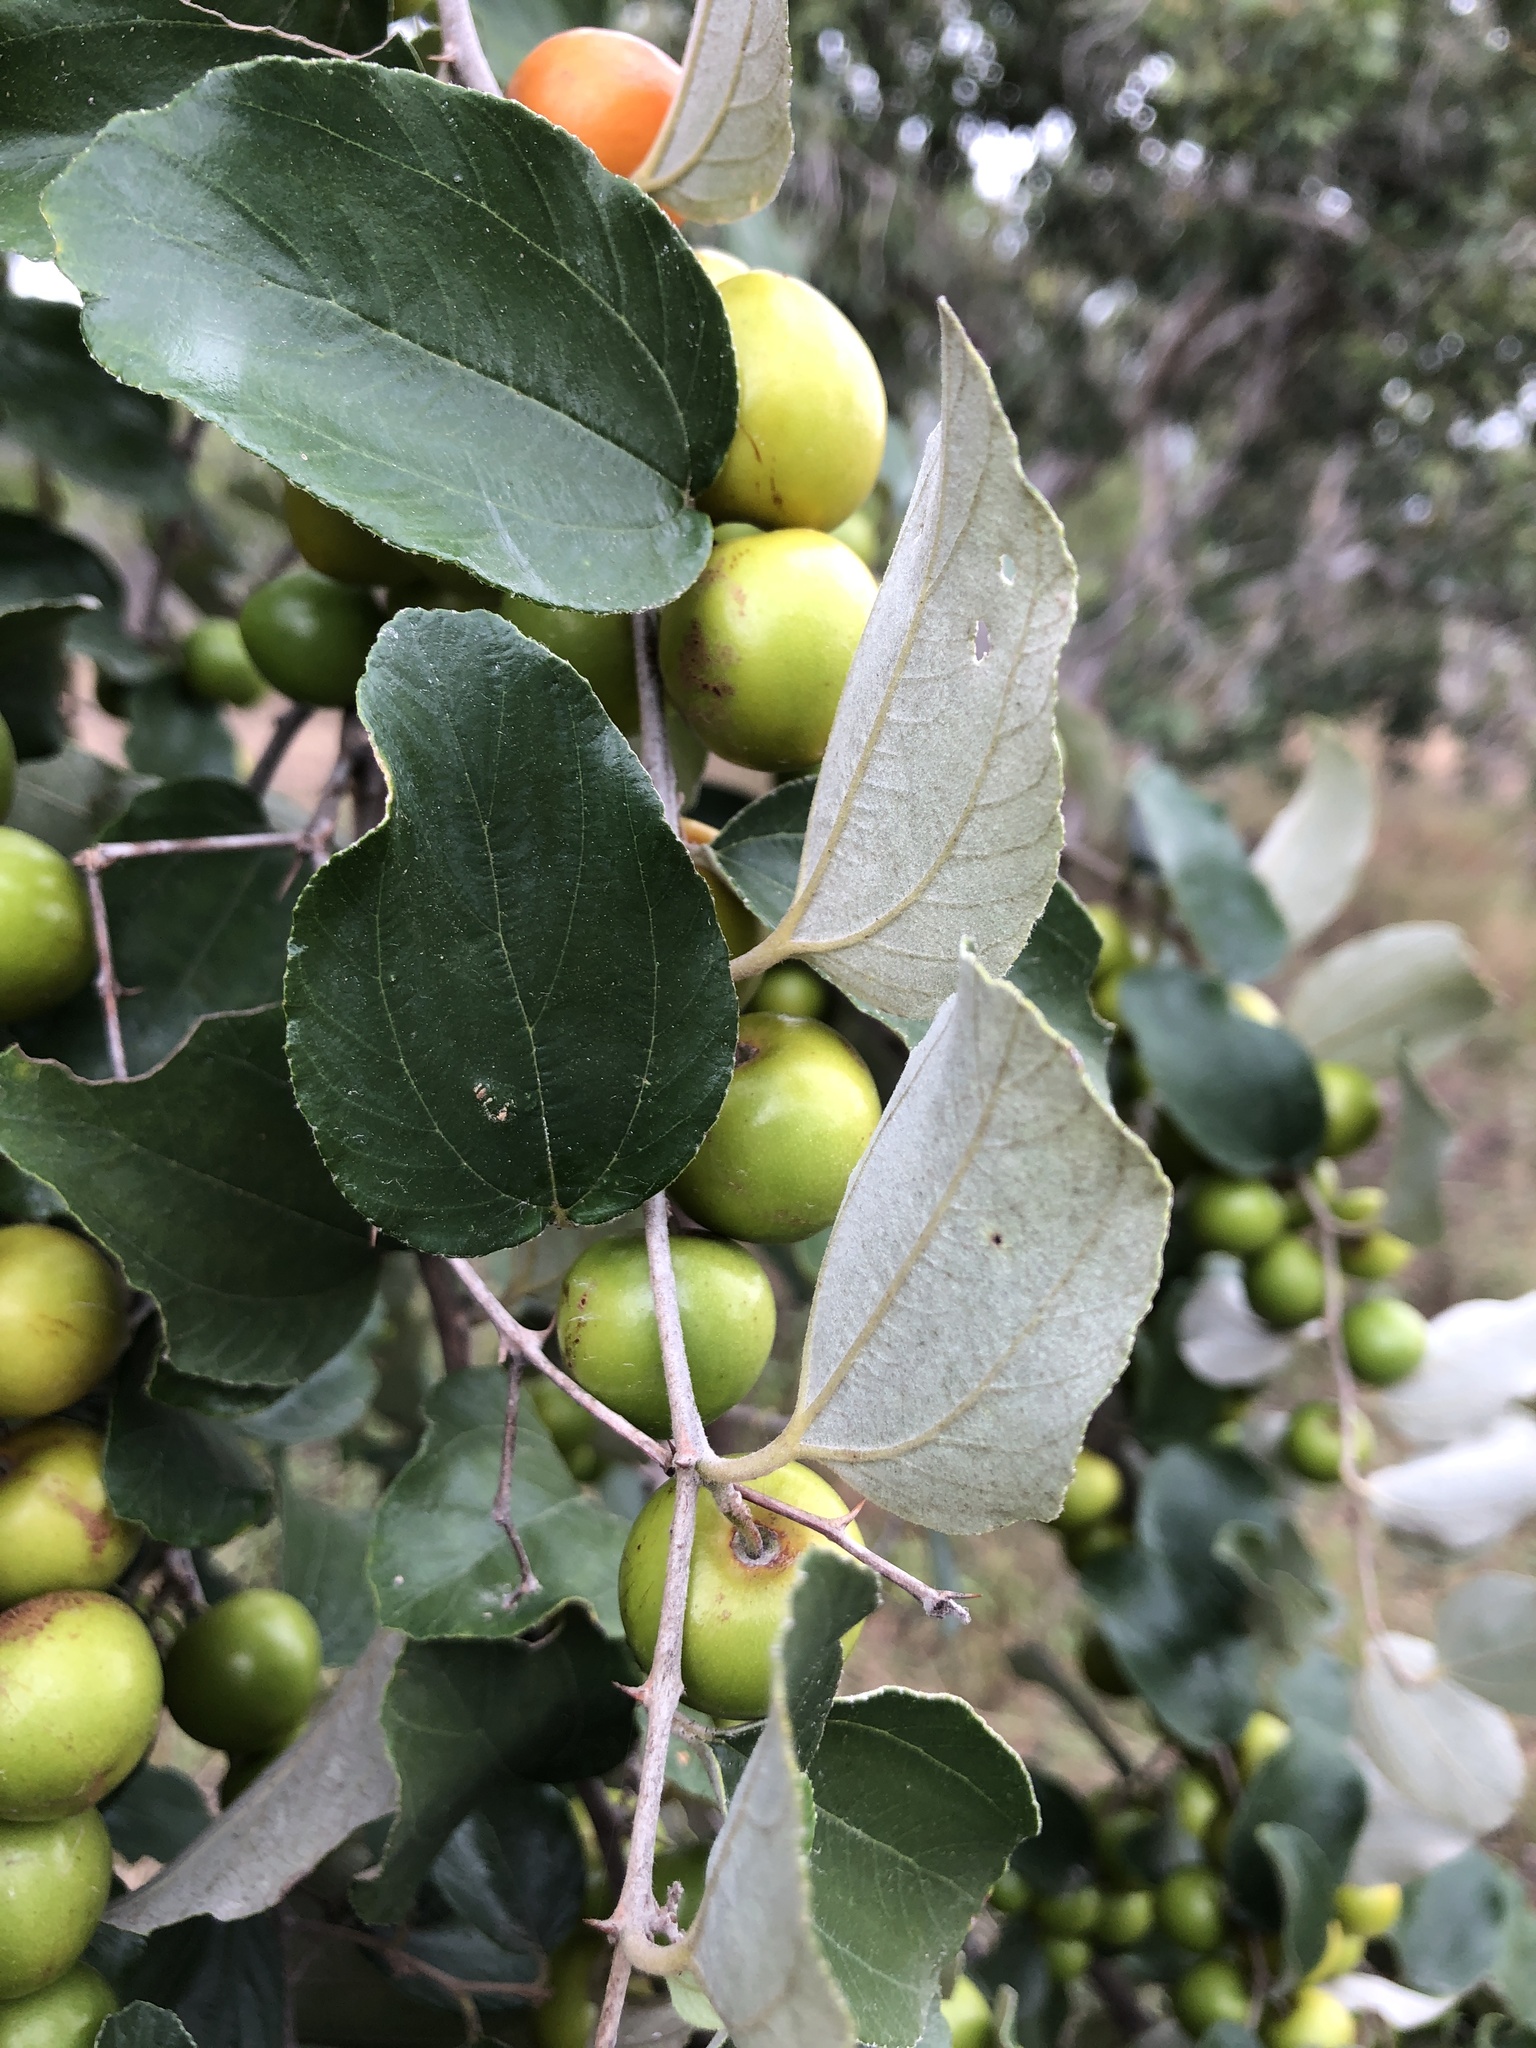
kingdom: Plantae
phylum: Tracheophyta
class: Magnoliopsida
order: Rosales
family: Rhamnaceae
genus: Ziziphus
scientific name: Ziziphus mauritiana
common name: Indian jujube
